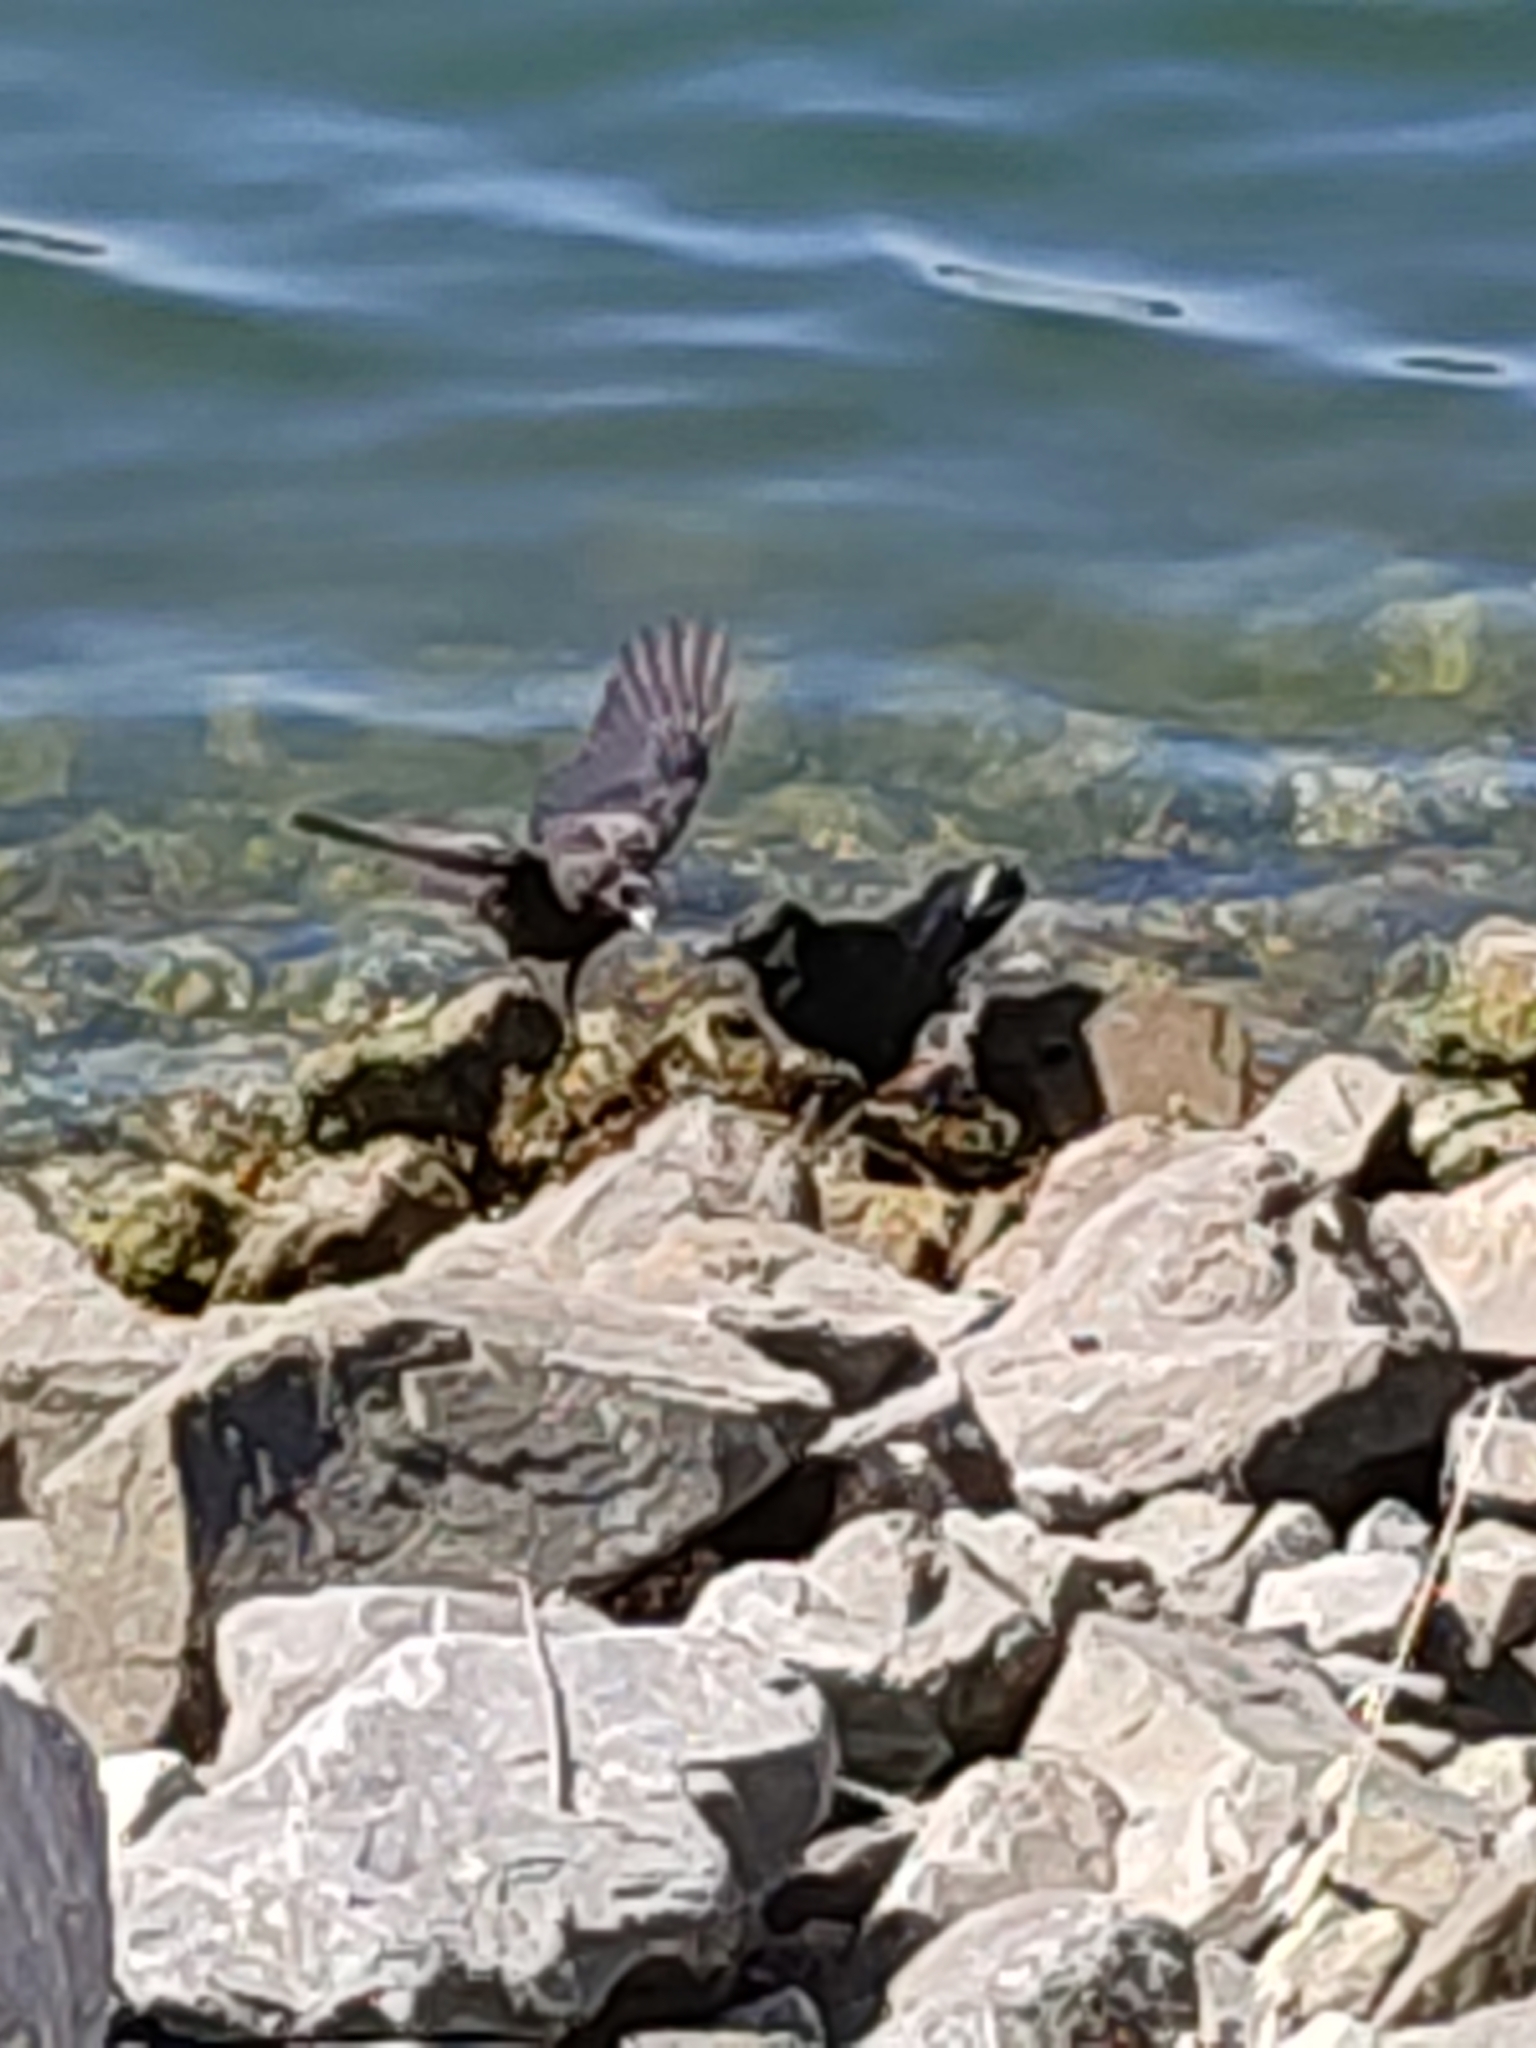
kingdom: Animalia
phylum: Chordata
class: Aves
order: Passeriformes
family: Corvidae
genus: Corvus
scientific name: Corvus brachyrhynchos
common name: American crow
